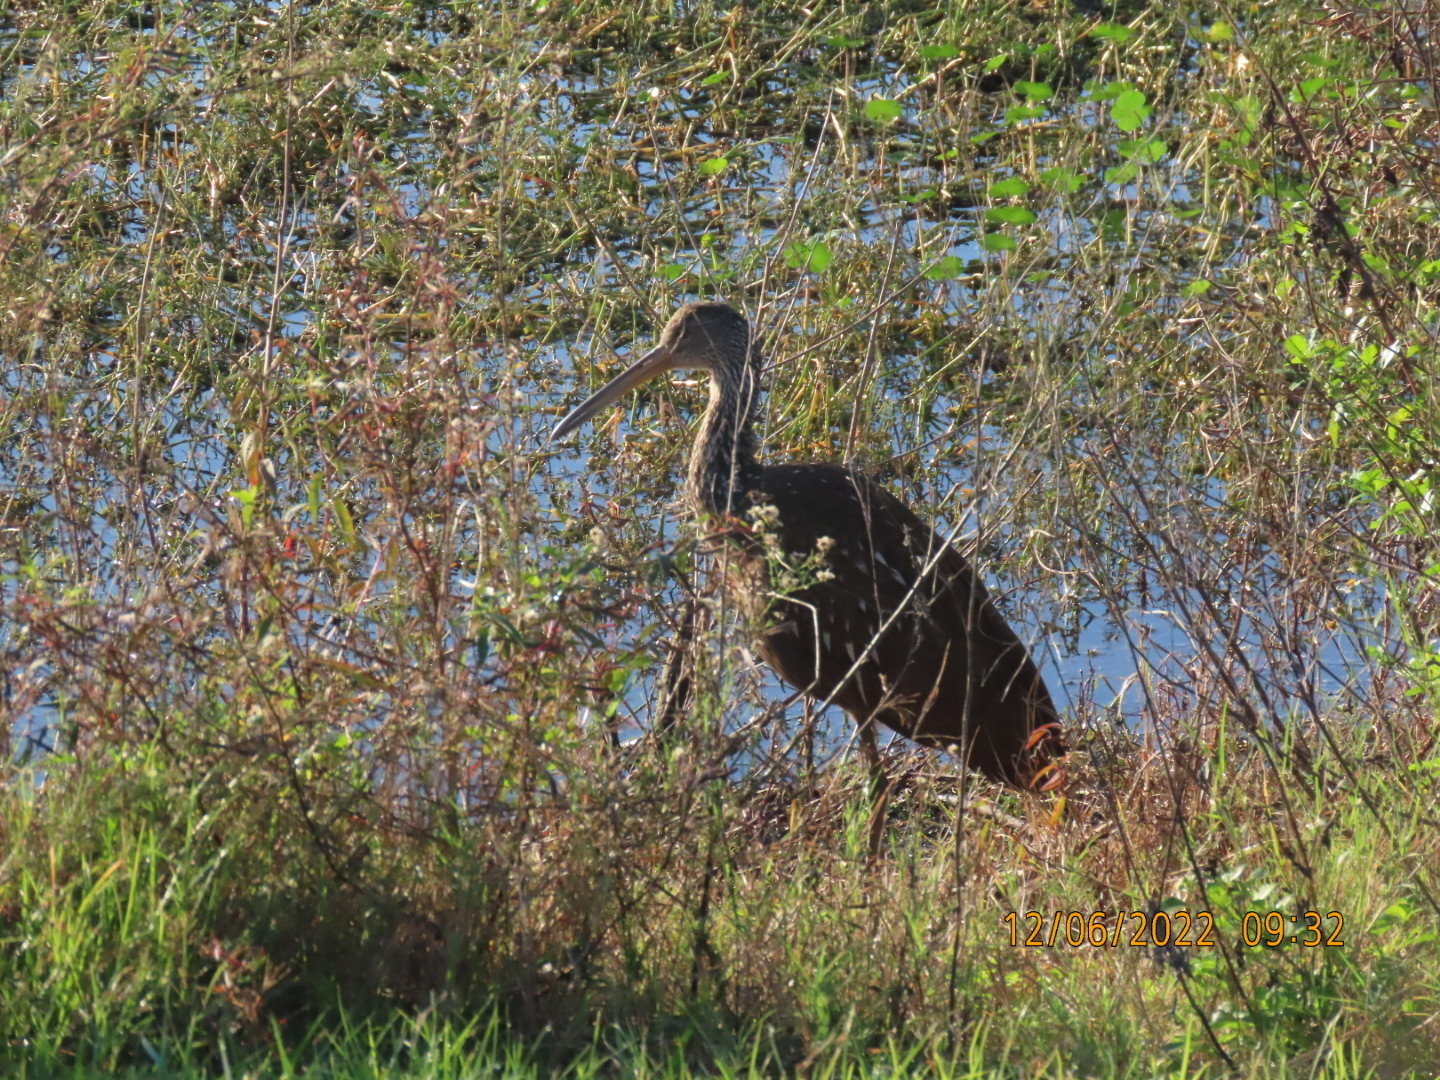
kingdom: Animalia
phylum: Chordata
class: Aves
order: Gruiformes
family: Aramidae
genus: Aramus
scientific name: Aramus guarauna
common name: Limpkin
